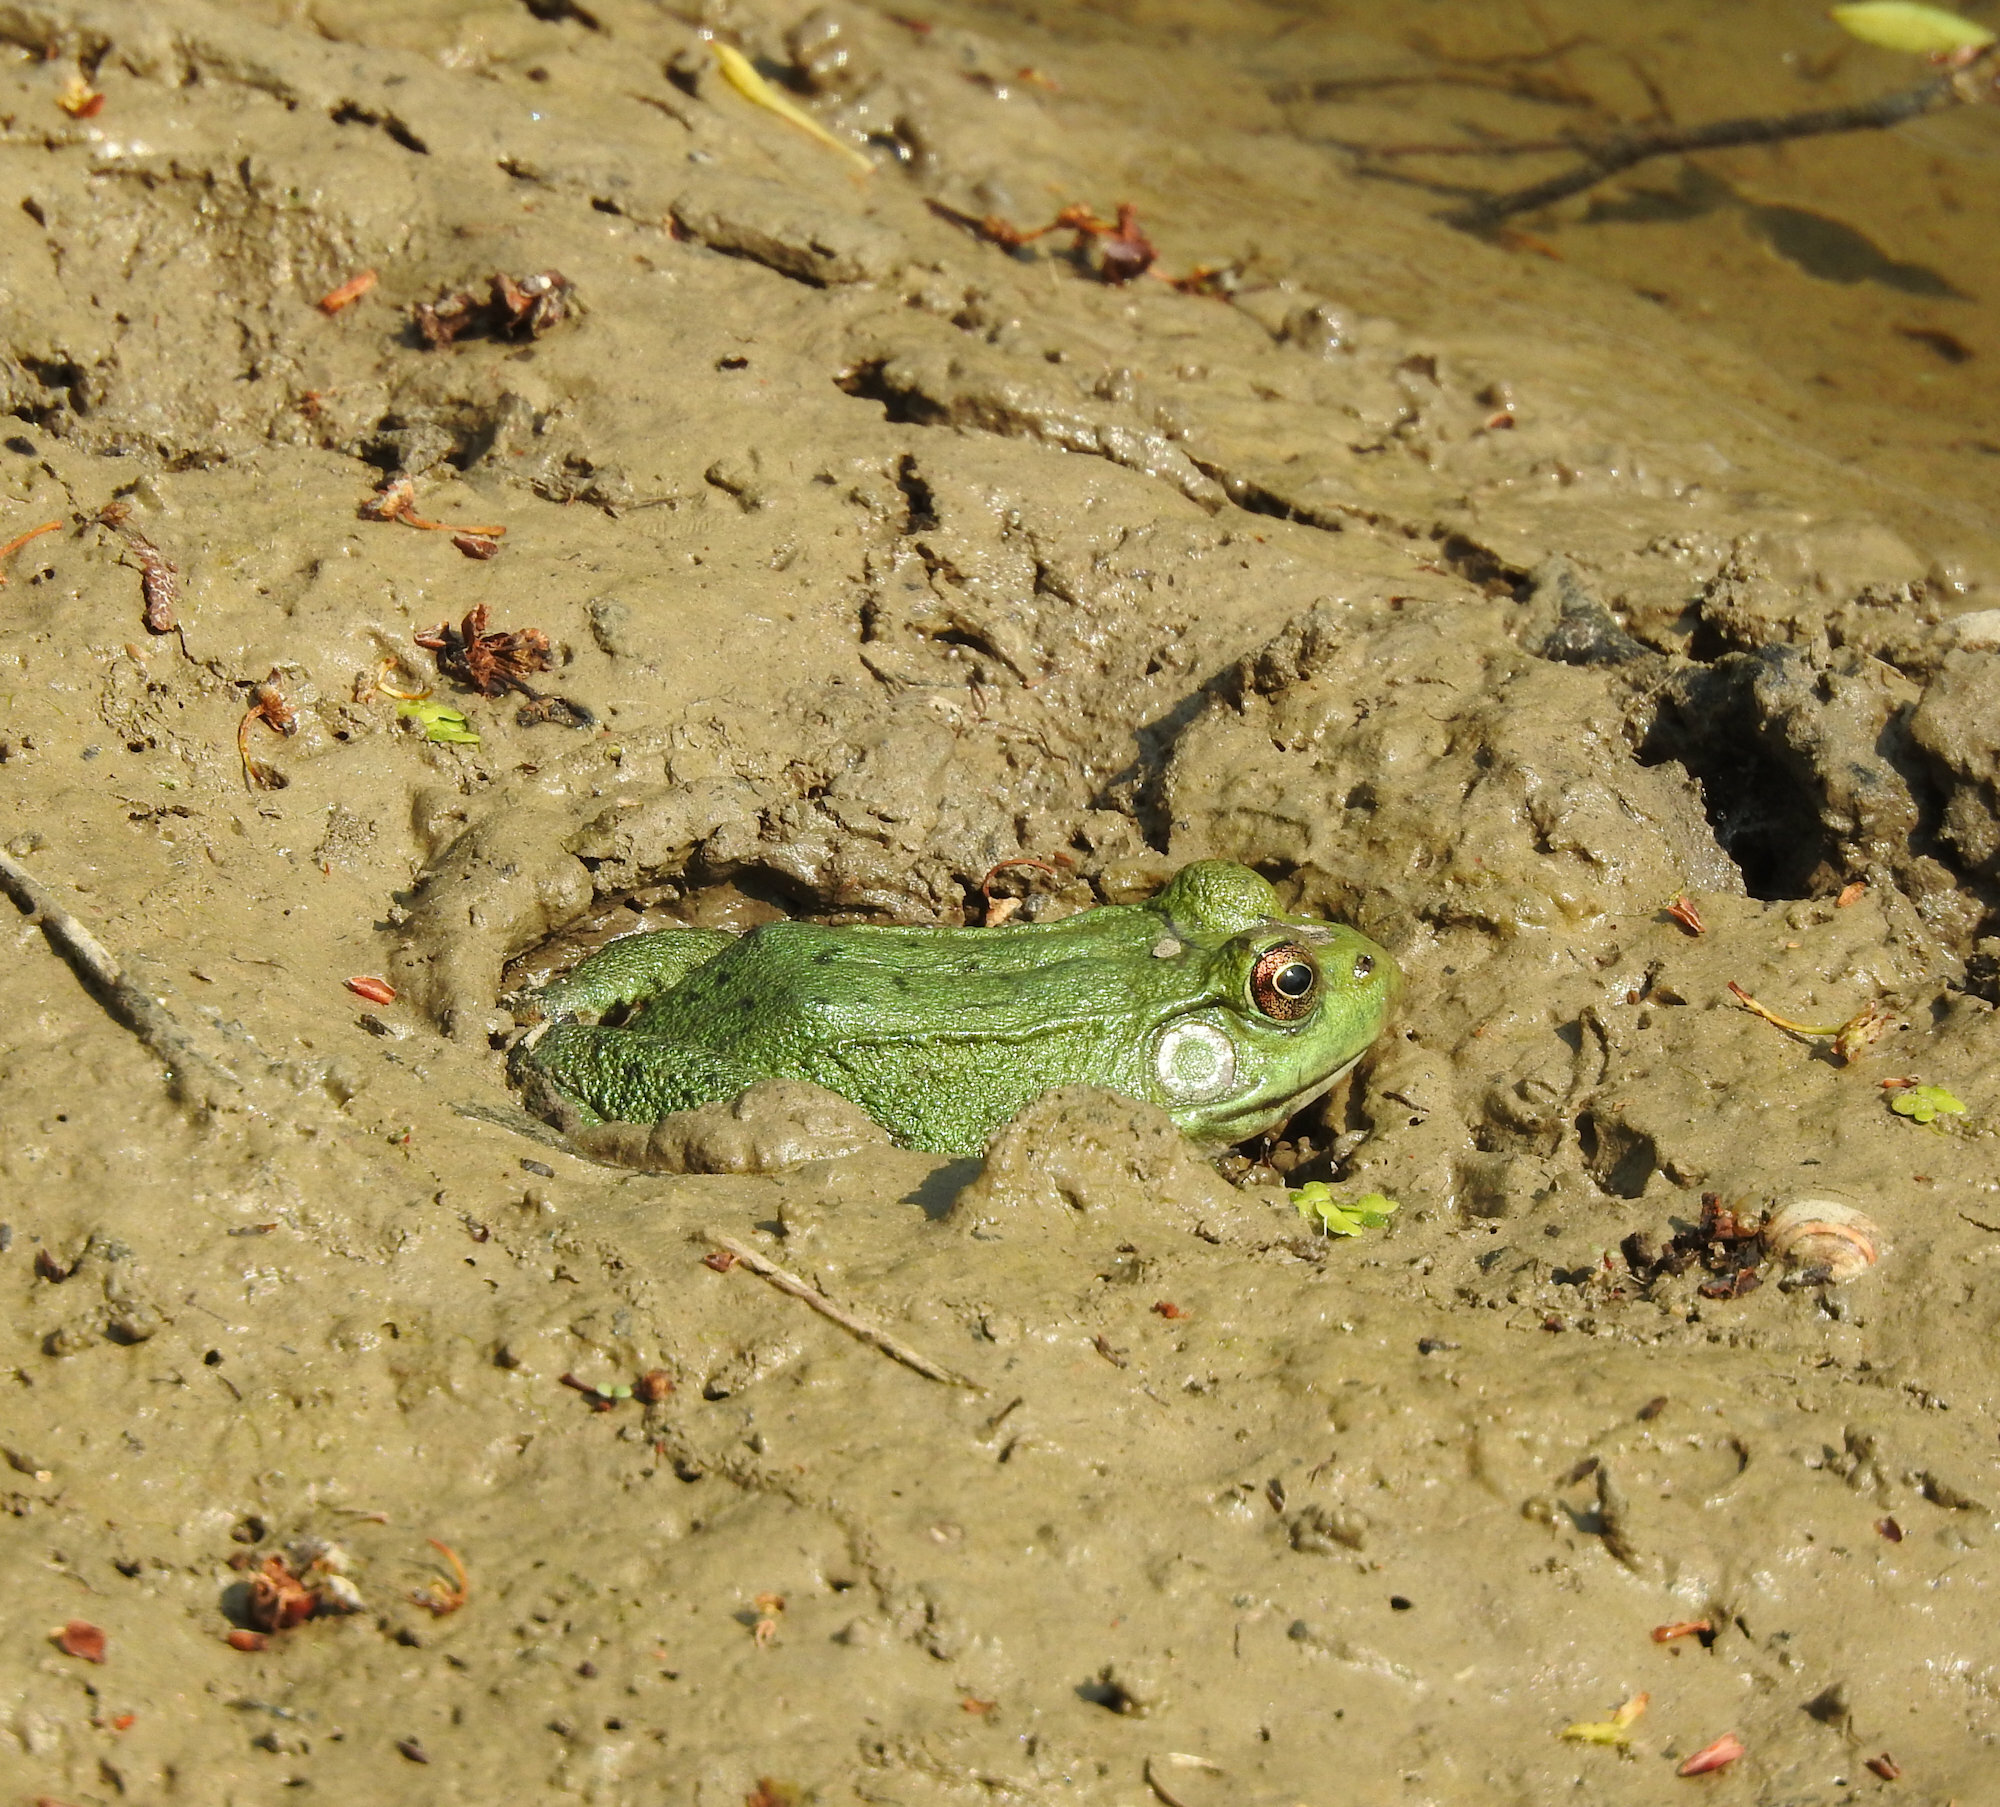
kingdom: Animalia
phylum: Chordata
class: Amphibia
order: Anura
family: Ranidae
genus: Lithobates
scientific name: Lithobates clamitans
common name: Green frog
